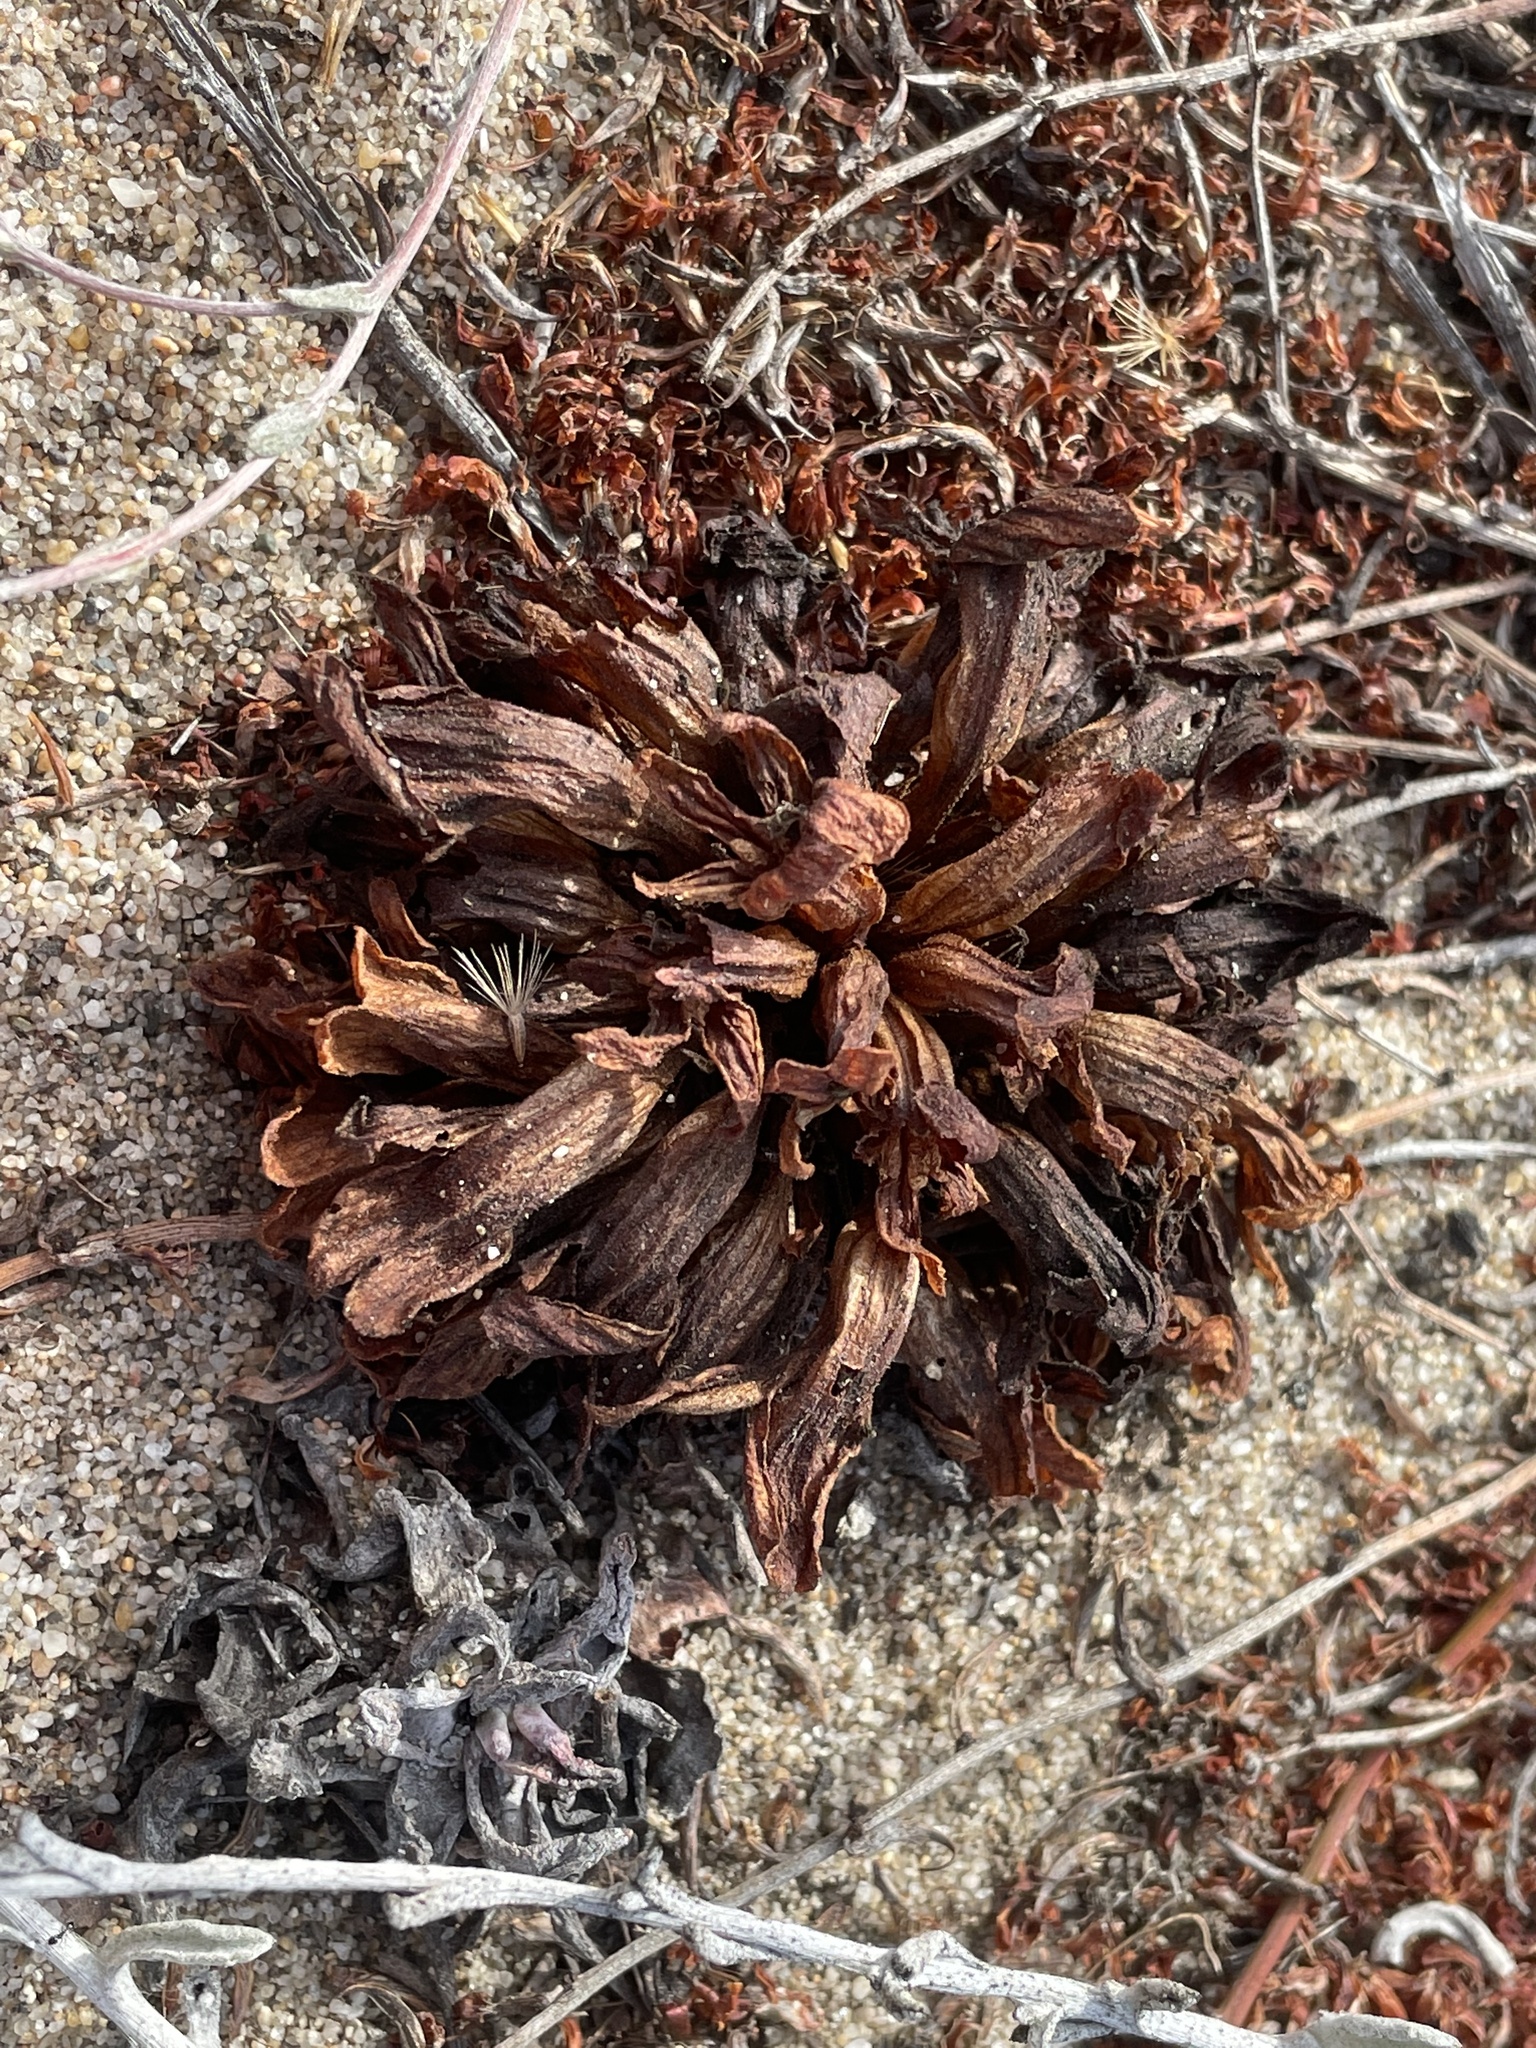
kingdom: Plantae
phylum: Tracheophyta
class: Magnoliopsida
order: Lamiales
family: Orobanchaceae
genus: Aphyllon
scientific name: Aphyllon californicum
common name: California broomrape
